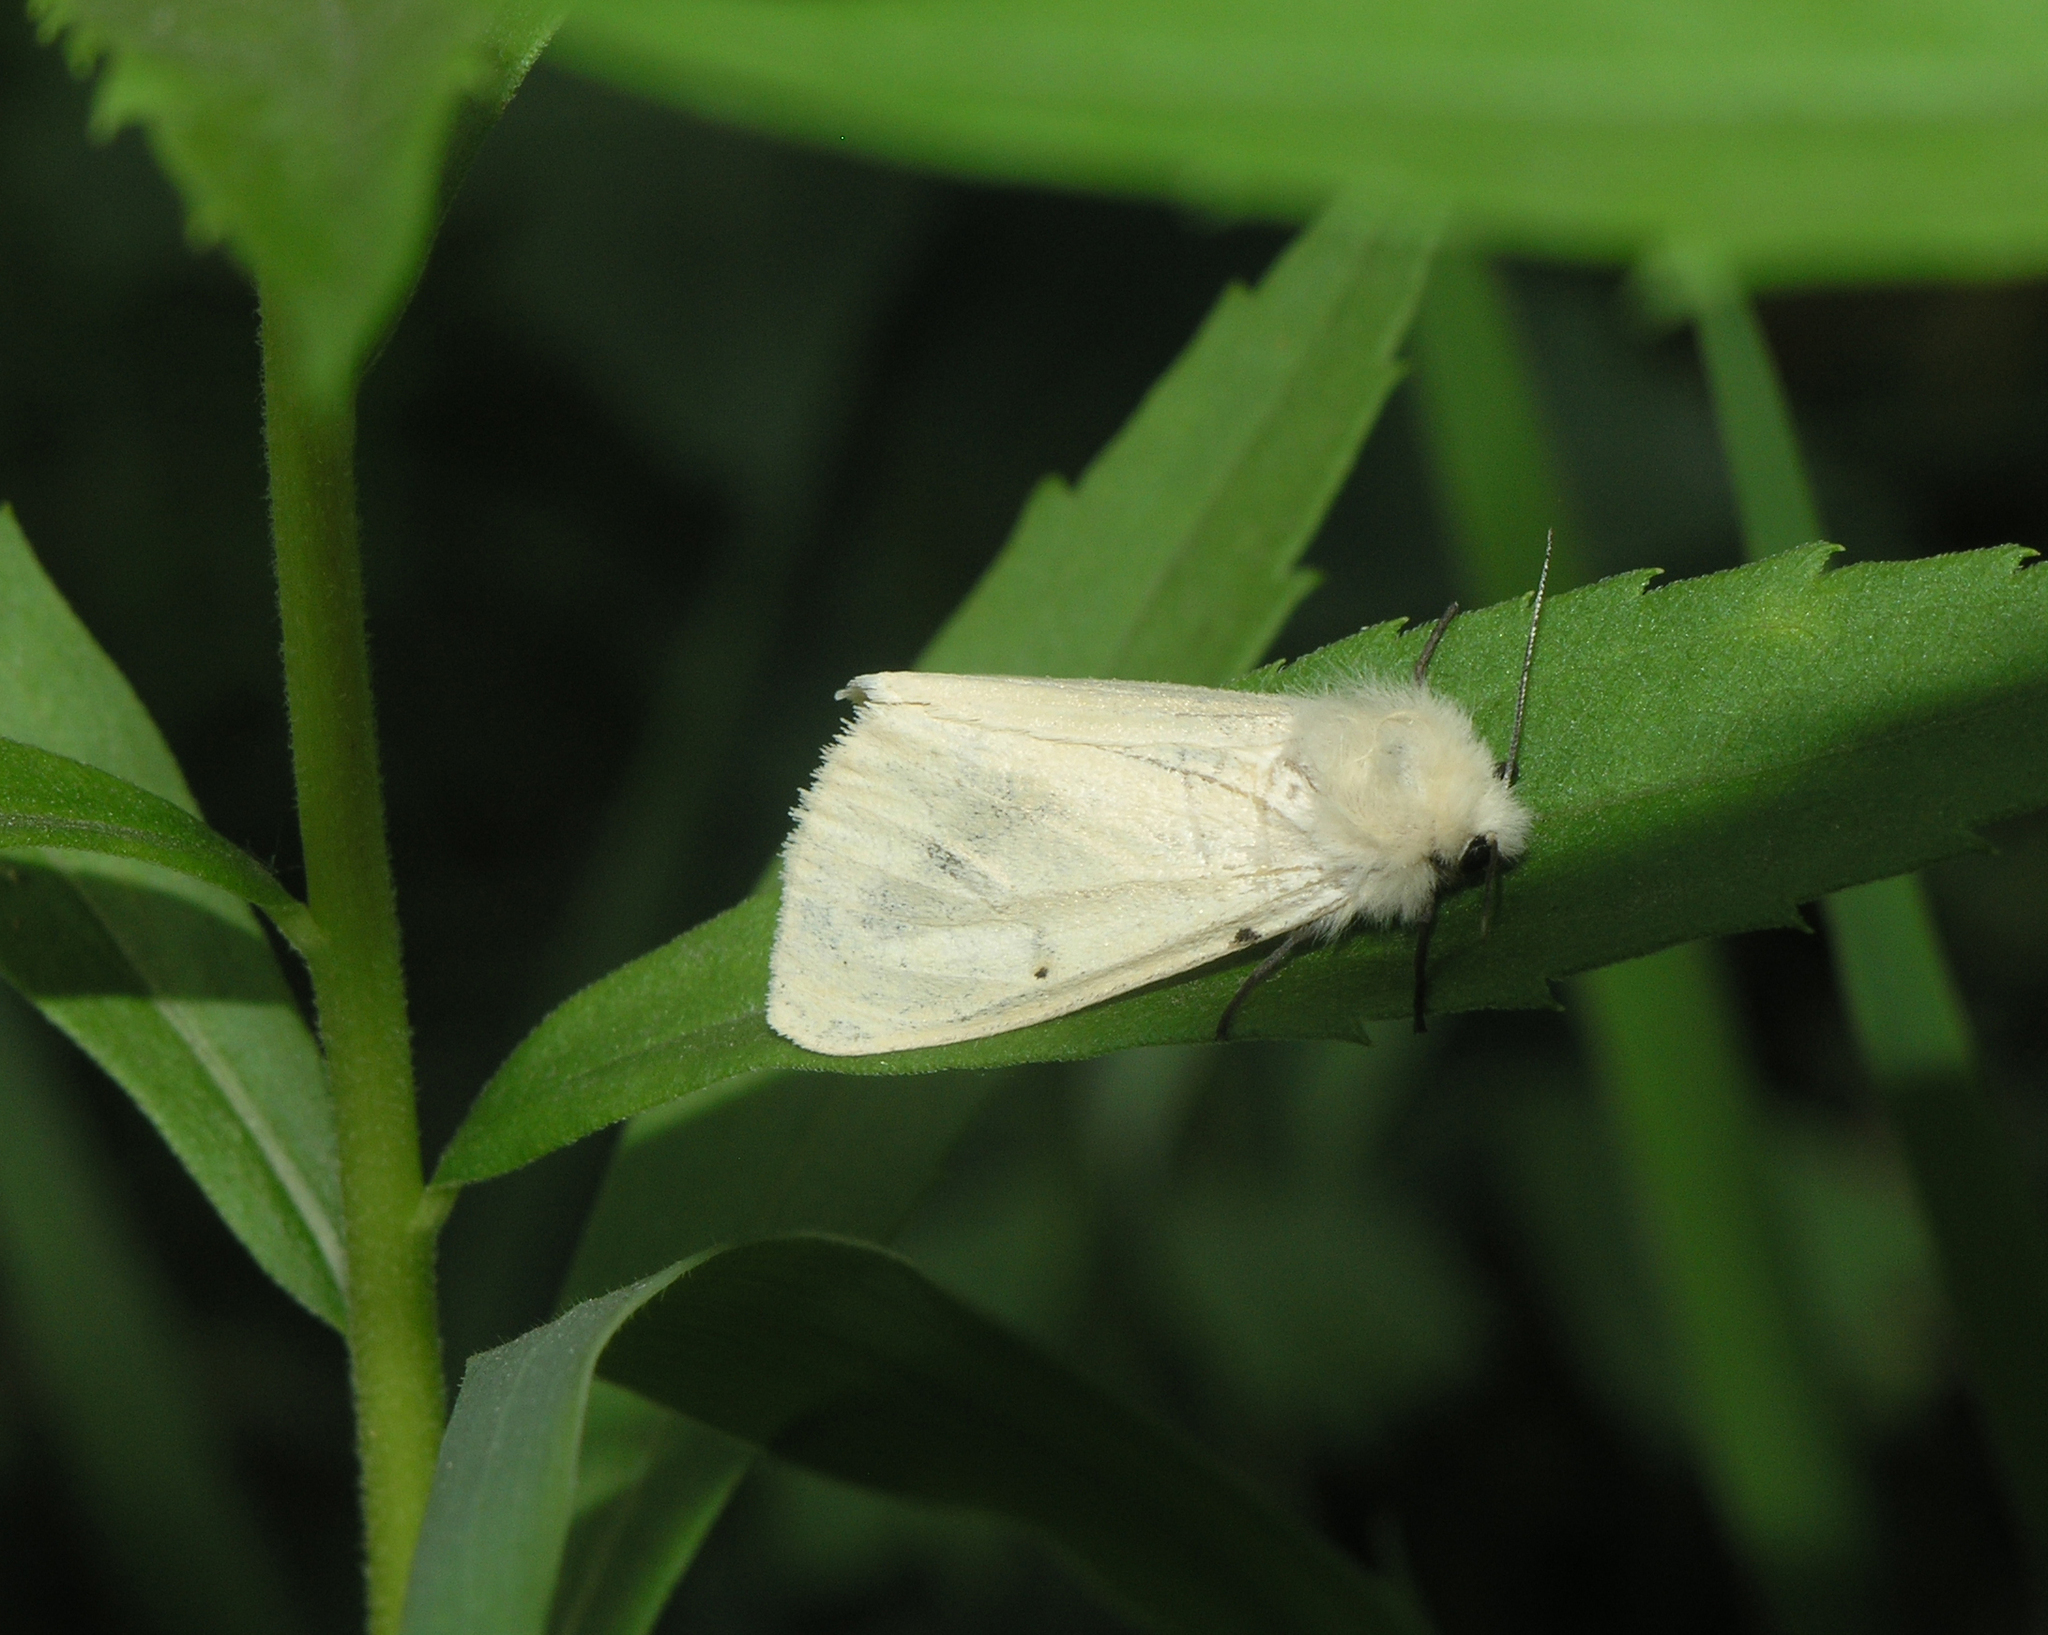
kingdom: Animalia
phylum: Arthropoda
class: Insecta
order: Lepidoptera
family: Erebidae
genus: Spilarctia
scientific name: Spilarctia lutea
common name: Buff ermine
